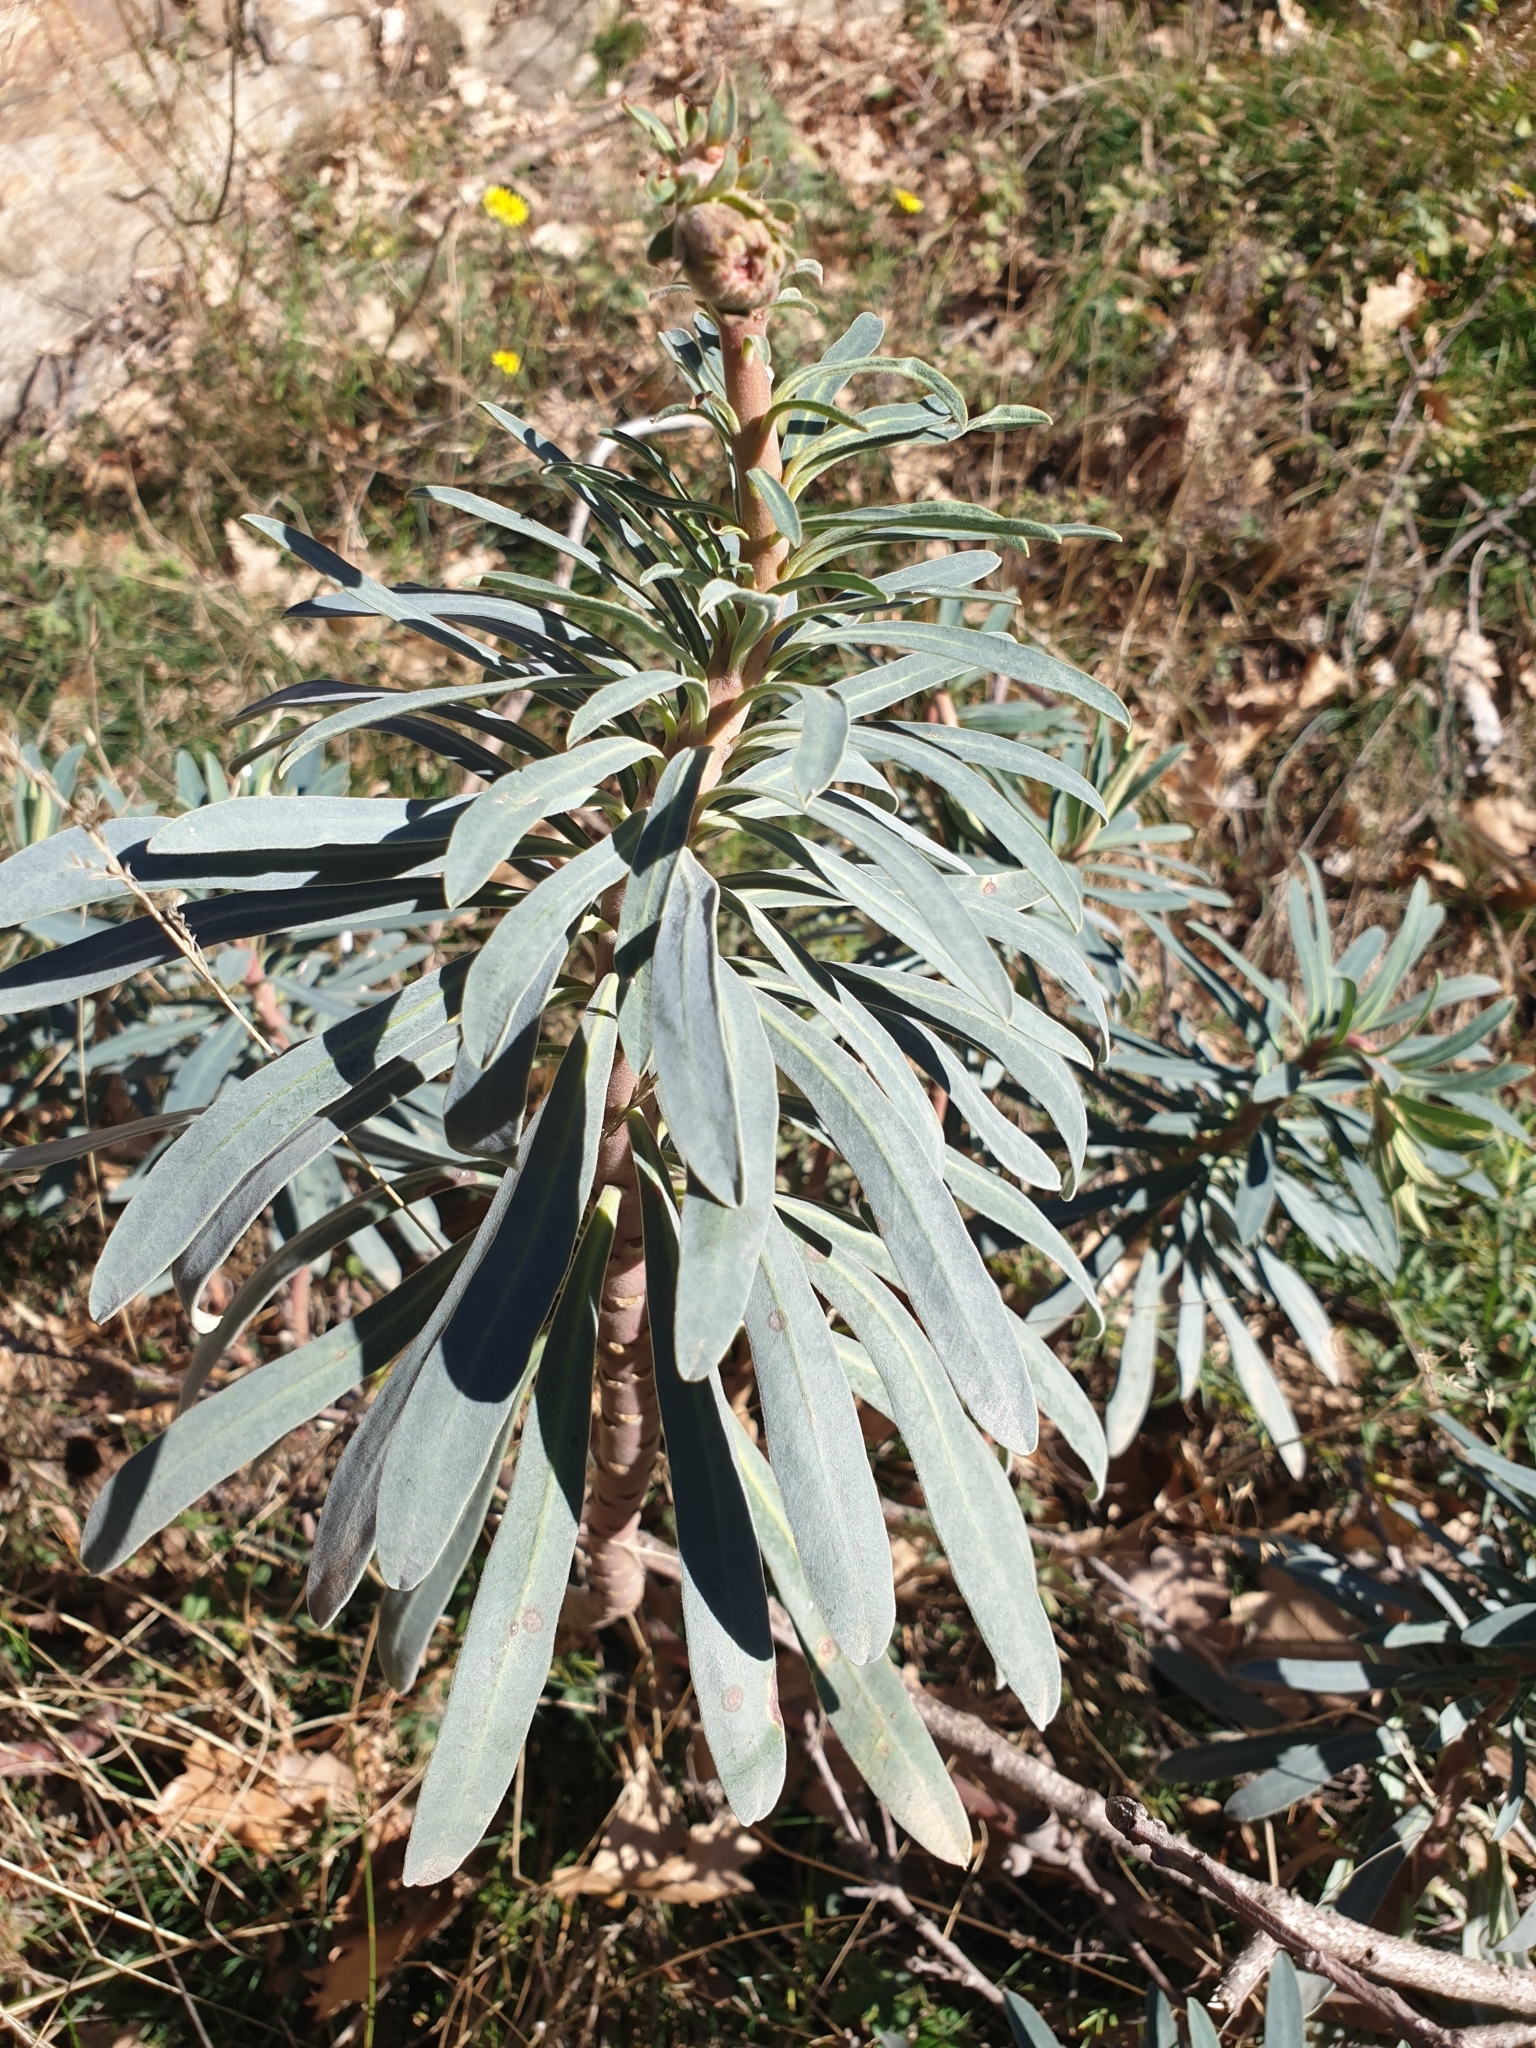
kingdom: Plantae
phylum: Tracheophyta
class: Magnoliopsida
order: Malpighiales
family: Euphorbiaceae
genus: Euphorbia
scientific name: Euphorbia characias
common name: Mediterranean spurge
